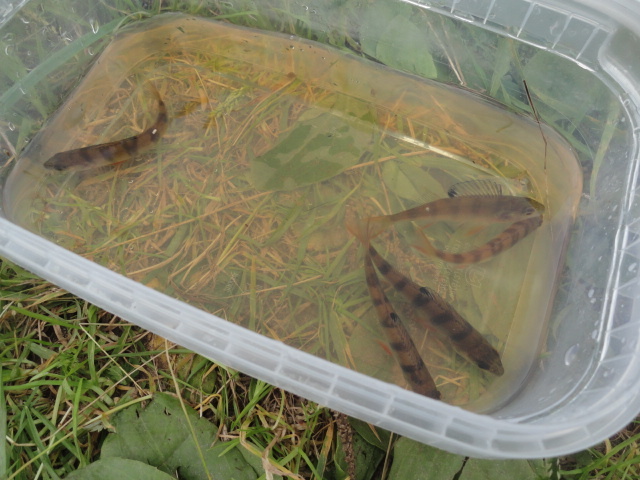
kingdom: Animalia
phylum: Chordata
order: Perciformes
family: Percidae
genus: Perca
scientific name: Perca fluviatilis
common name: Perch
